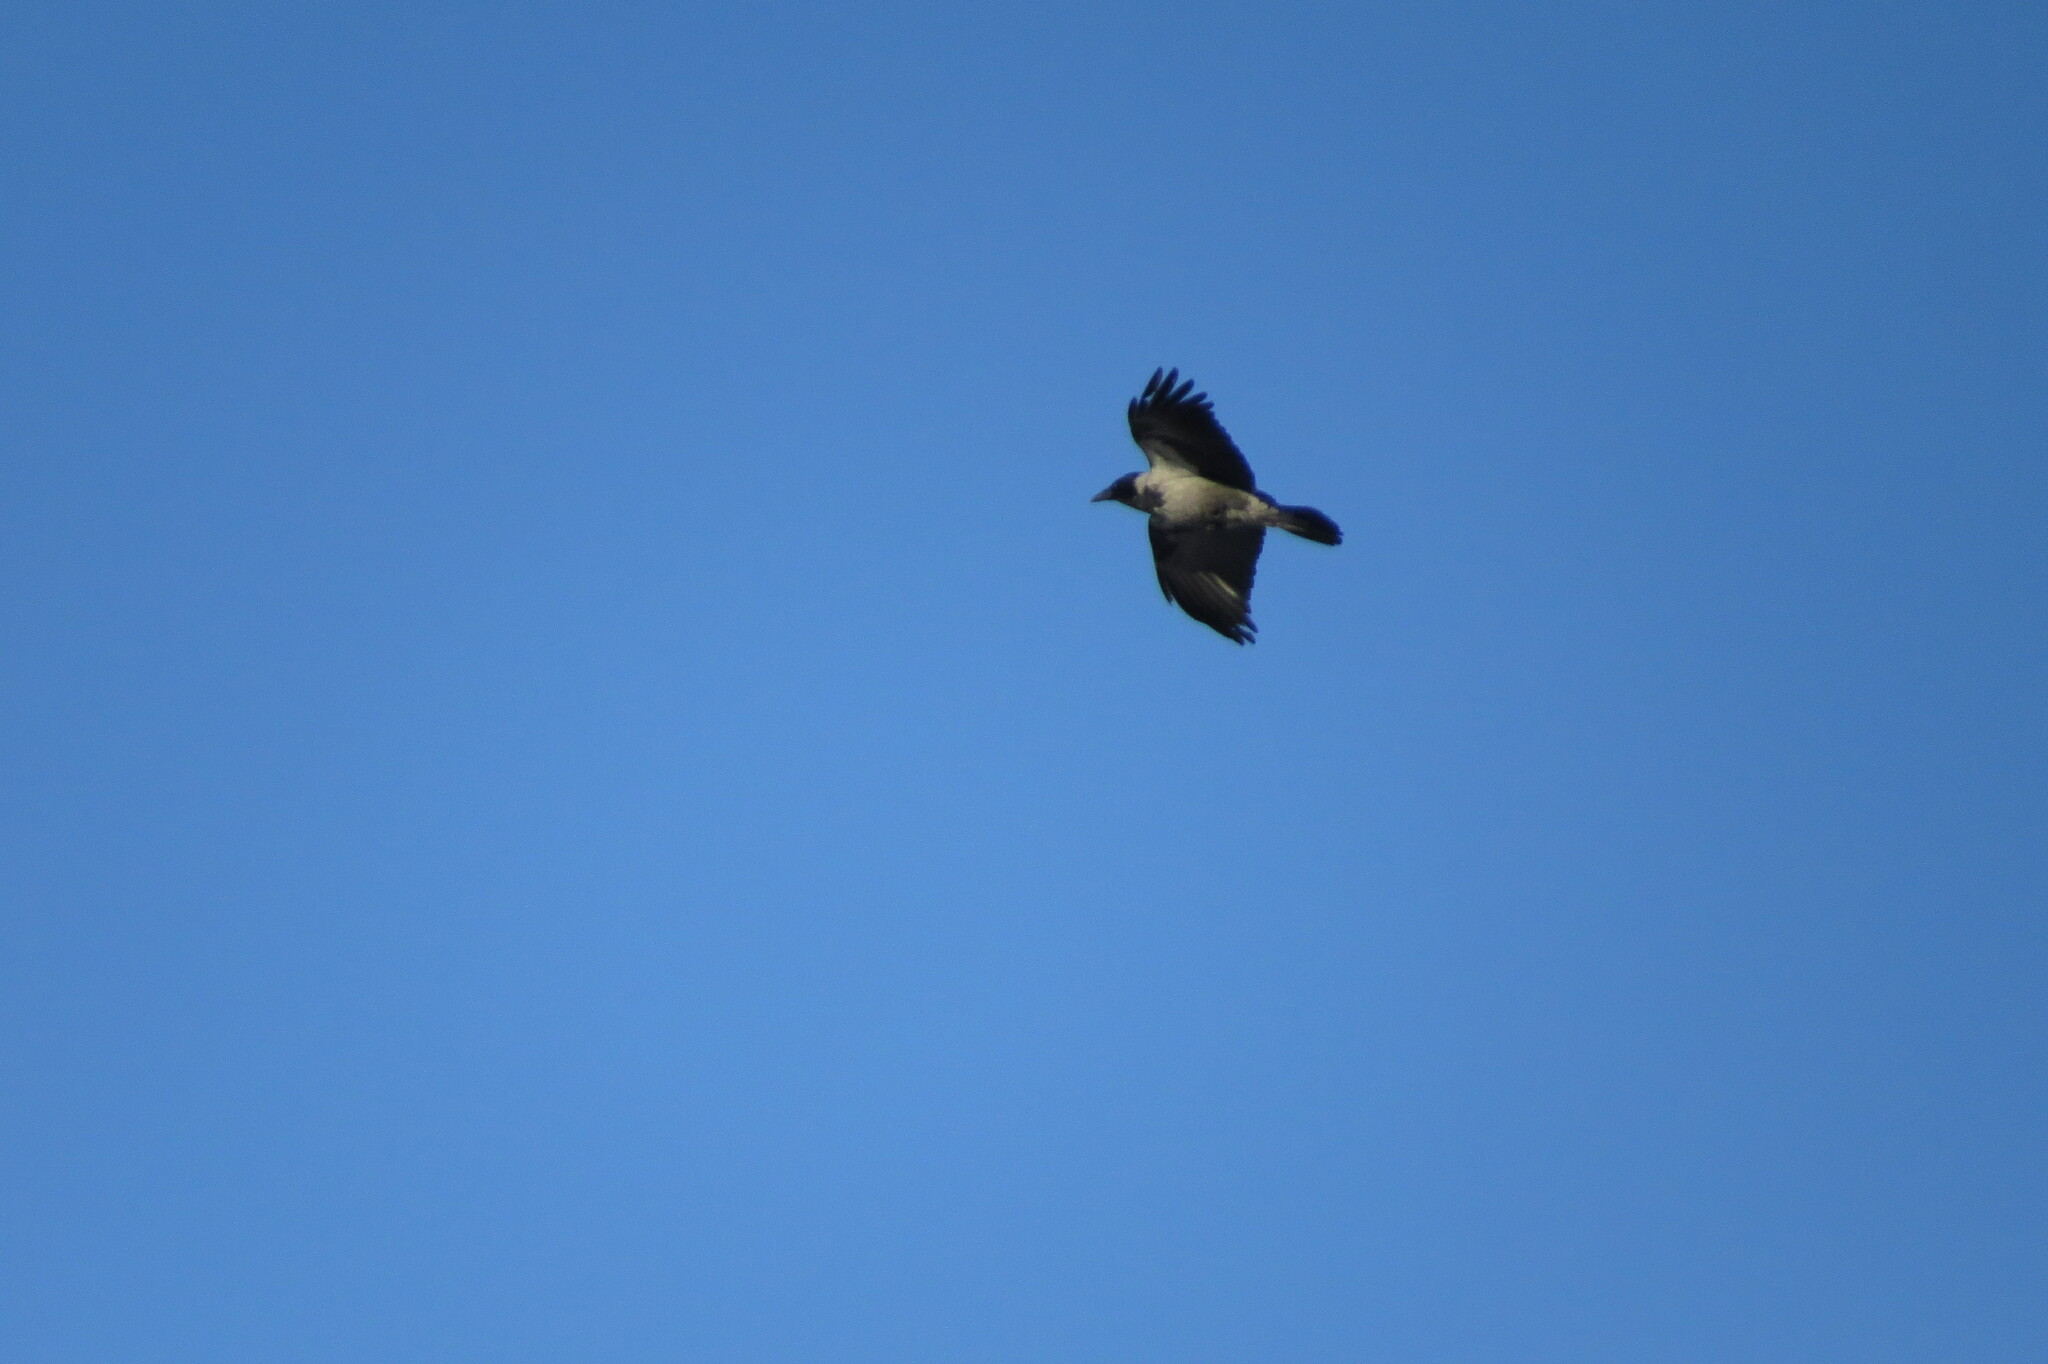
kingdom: Animalia
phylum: Chordata
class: Aves
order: Passeriformes
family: Corvidae
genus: Corvus
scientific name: Corvus cornix
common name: Hooded crow
